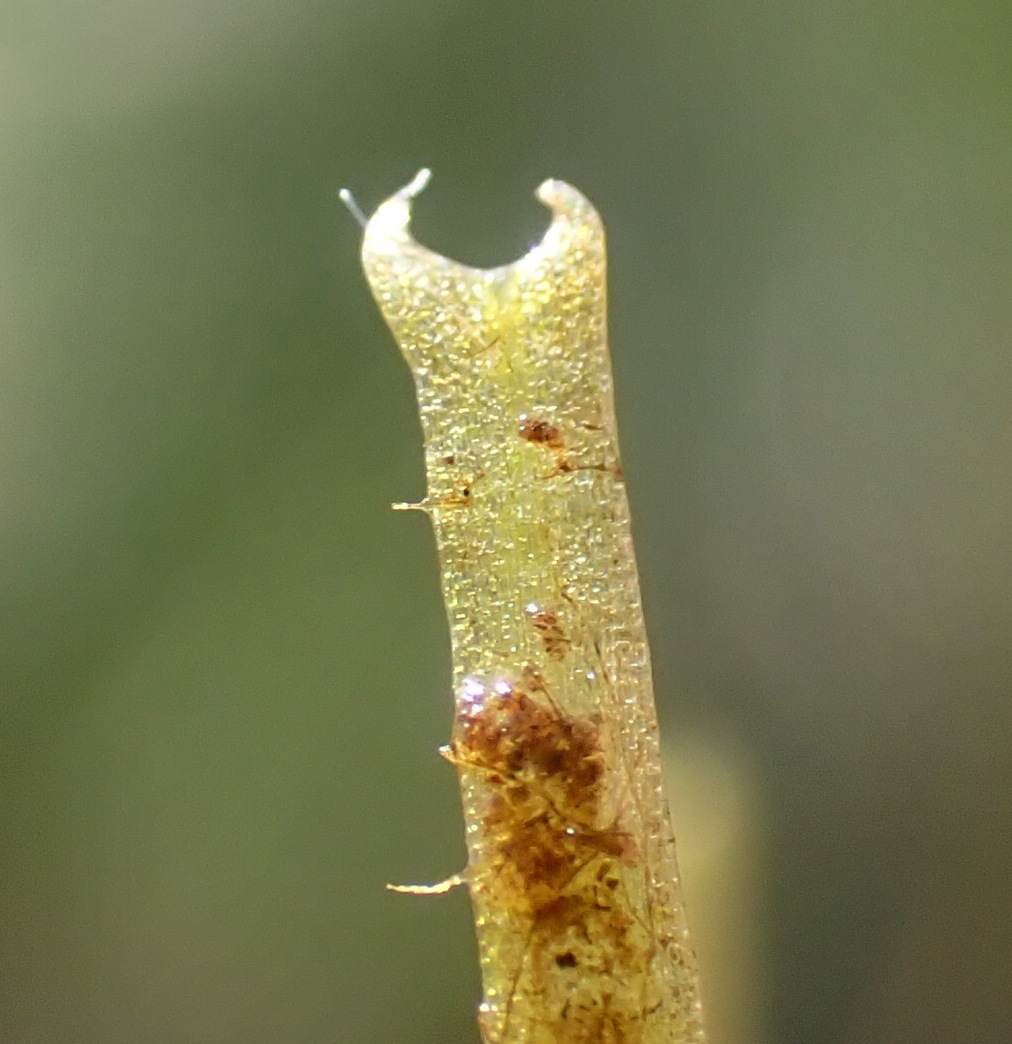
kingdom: Plantae
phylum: Tracheophyta
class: Magnoliopsida
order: Lamiales
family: Plantaginaceae
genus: Callitriche
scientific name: Callitriche hamulata
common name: Intermediate water-starwort
